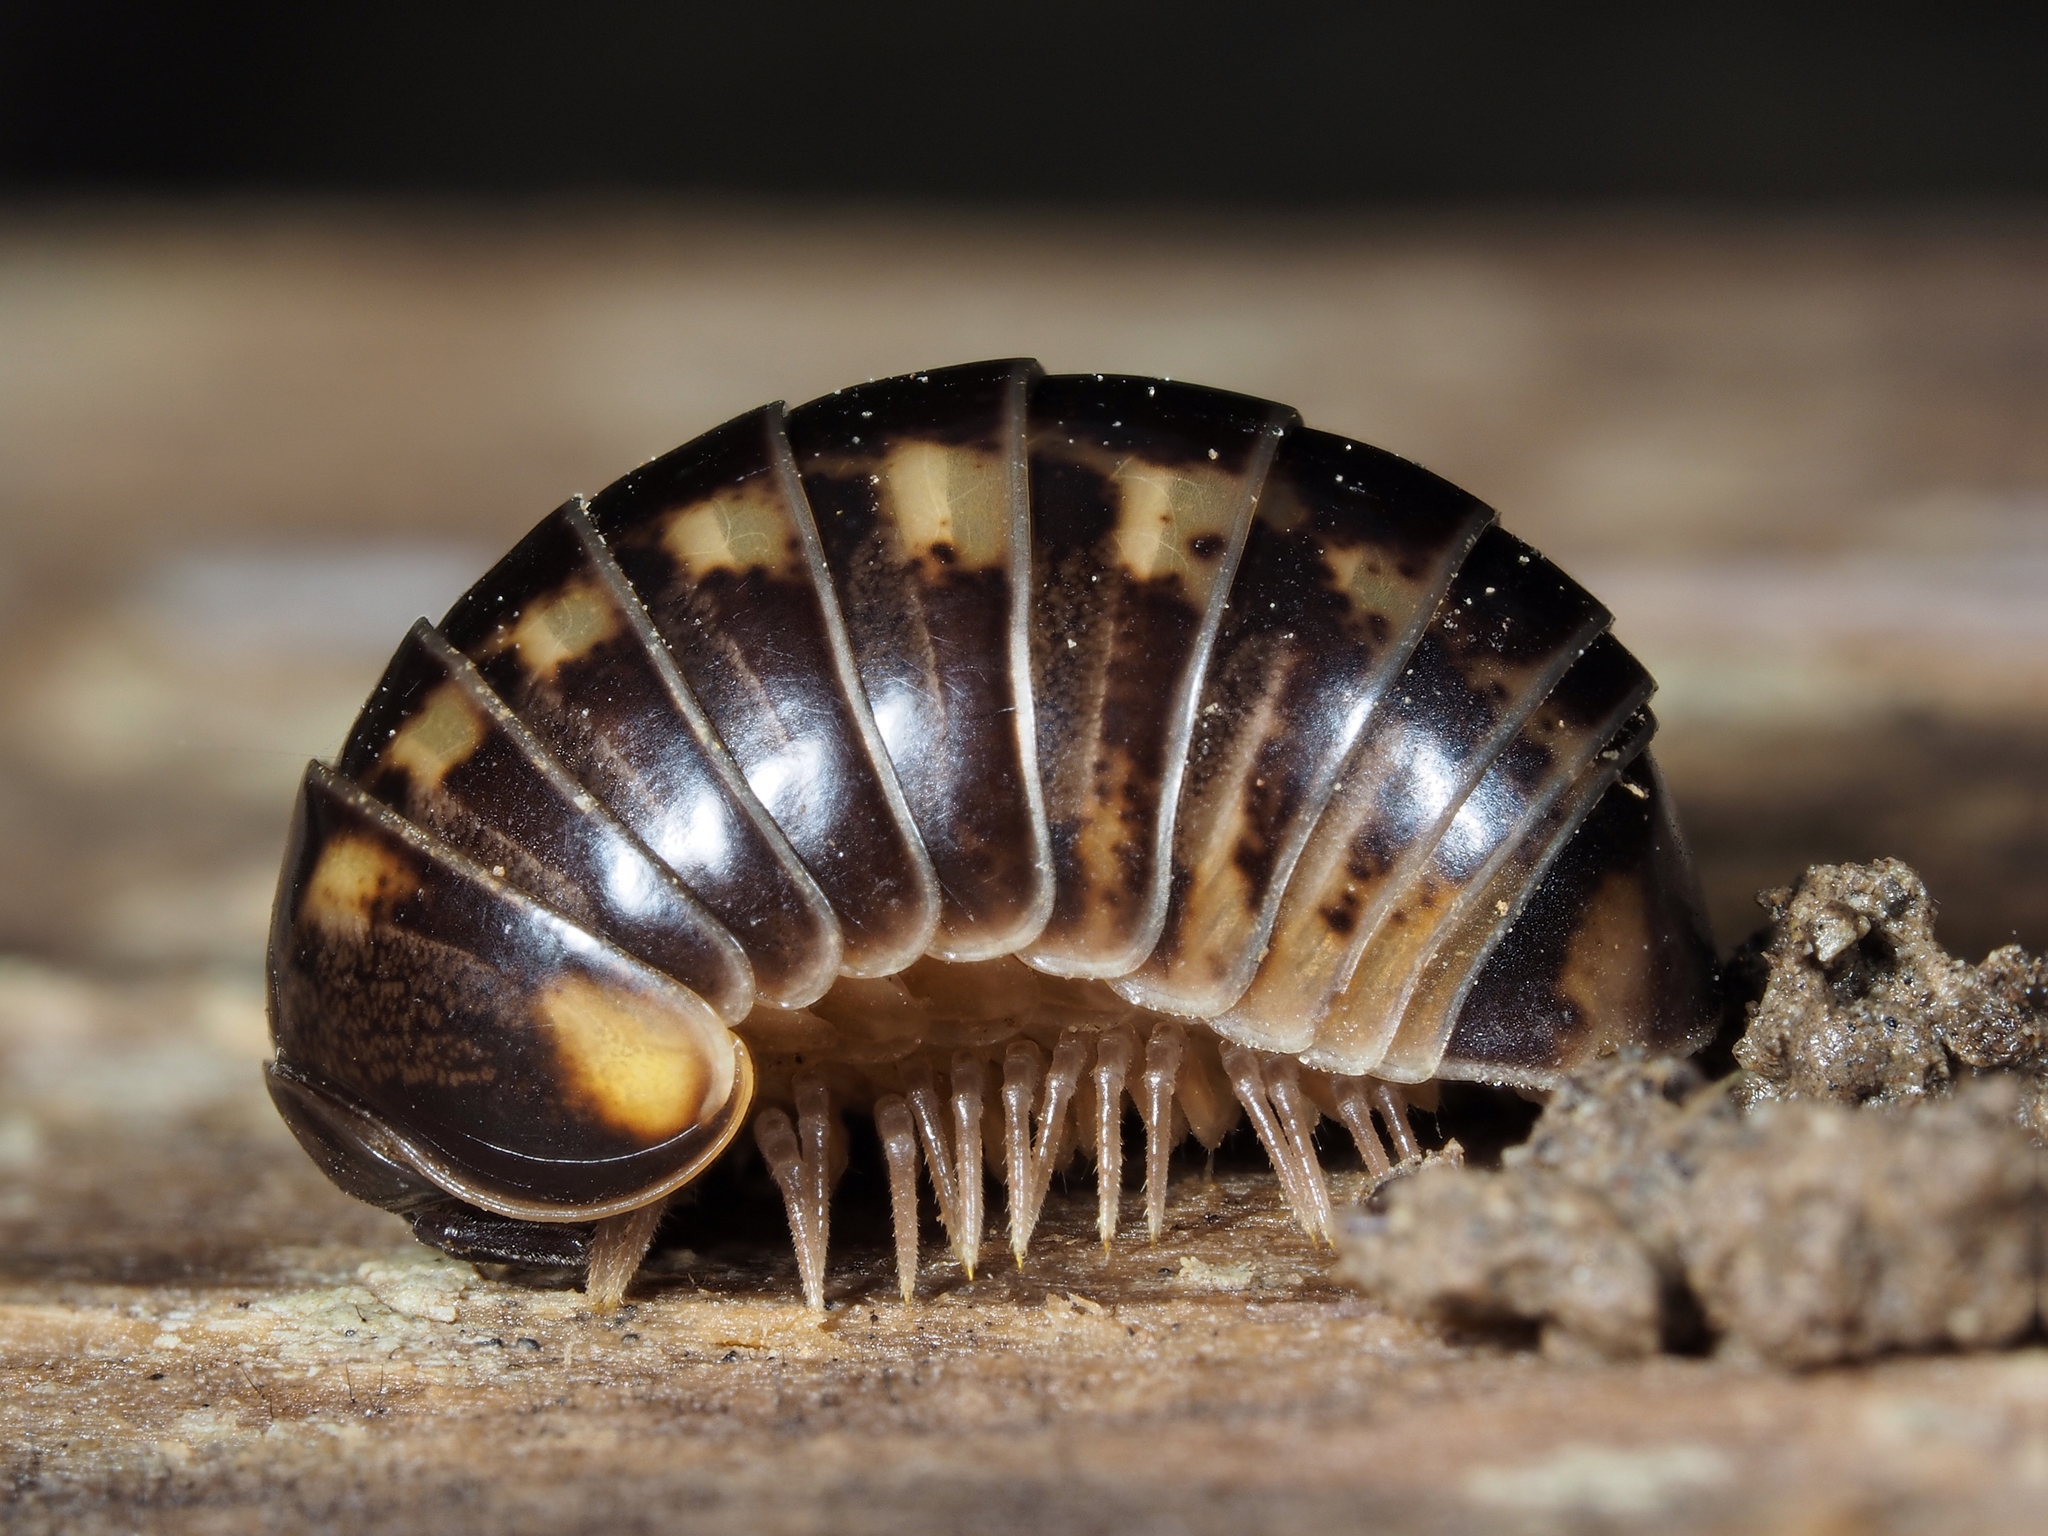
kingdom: Animalia
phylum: Arthropoda
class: Diplopoda
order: Glomerida
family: Glomeridae
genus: Glomeris
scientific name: Glomeris distichella
